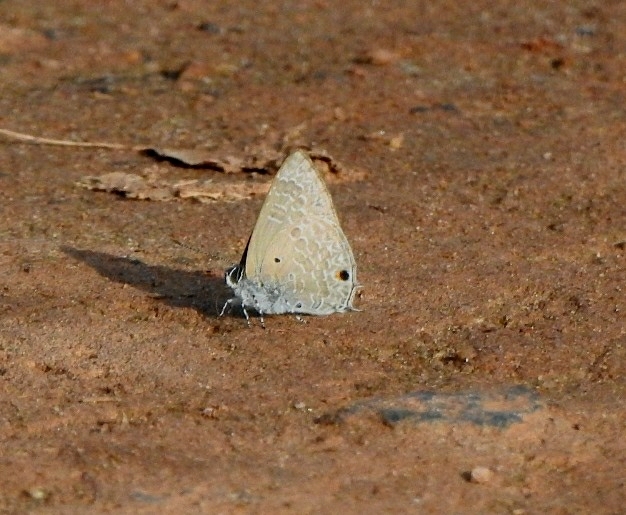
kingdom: Animalia
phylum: Arthropoda
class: Insecta
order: Lepidoptera
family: Lycaenidae
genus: Anthene
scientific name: Anthene lycaenina
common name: Pointed ciliate blue
